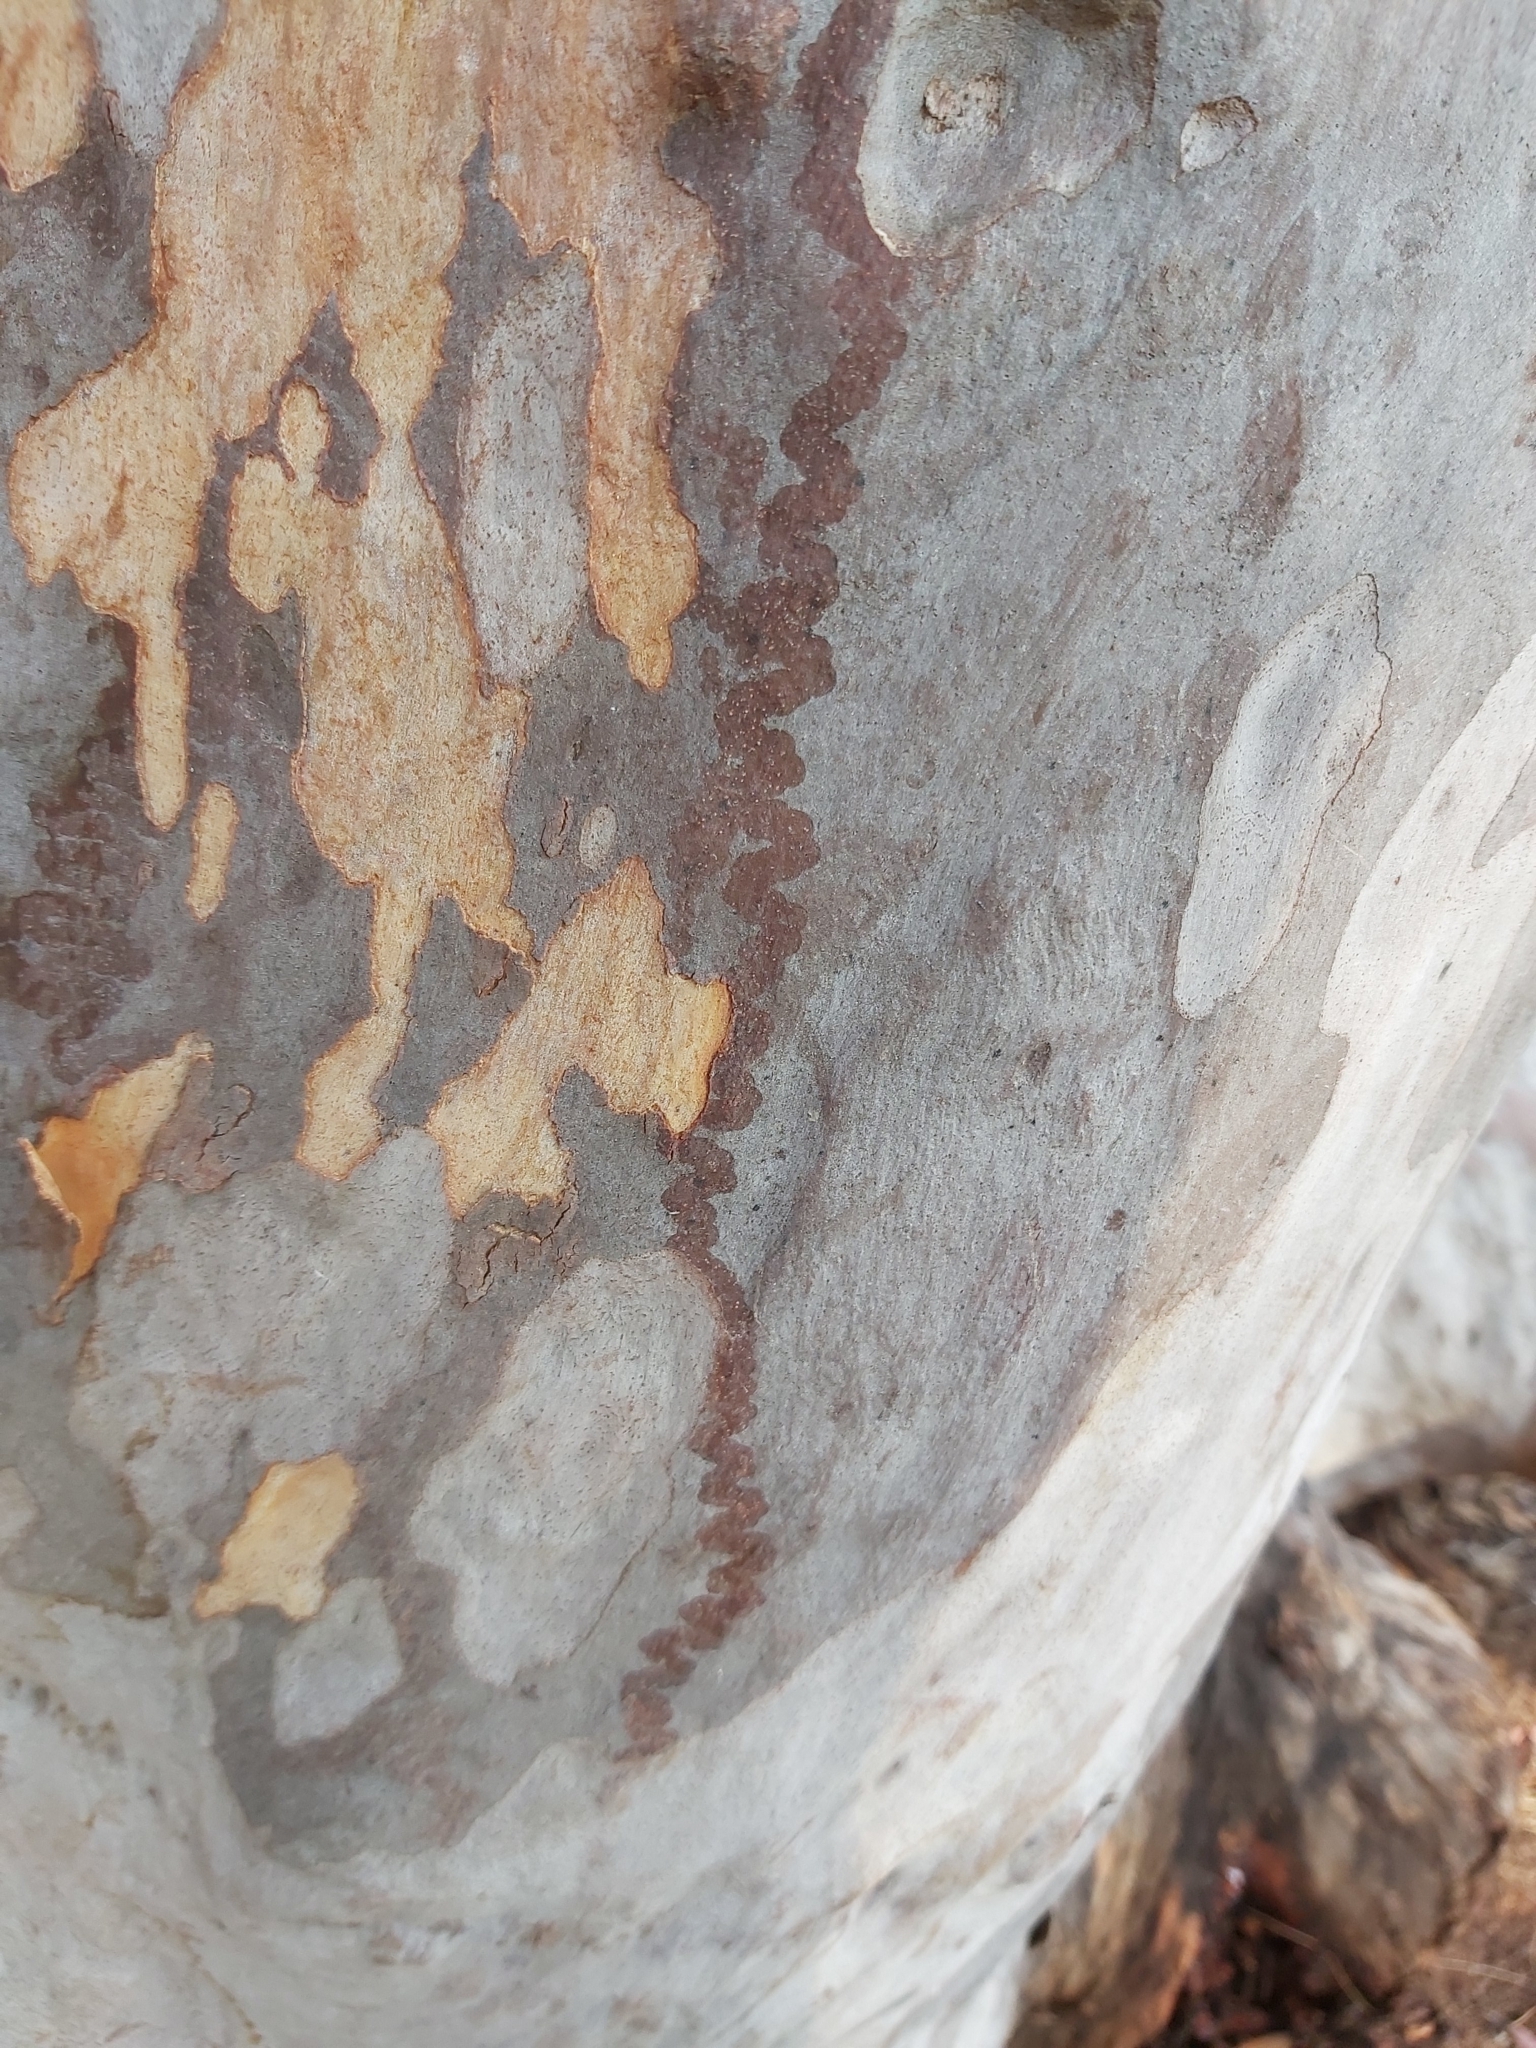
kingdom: Animalia
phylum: Mollusca
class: Gastropoda
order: Stylommatophora
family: Athoracophoridae
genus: Triboniophorus
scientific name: Triboniophorus graeffei
